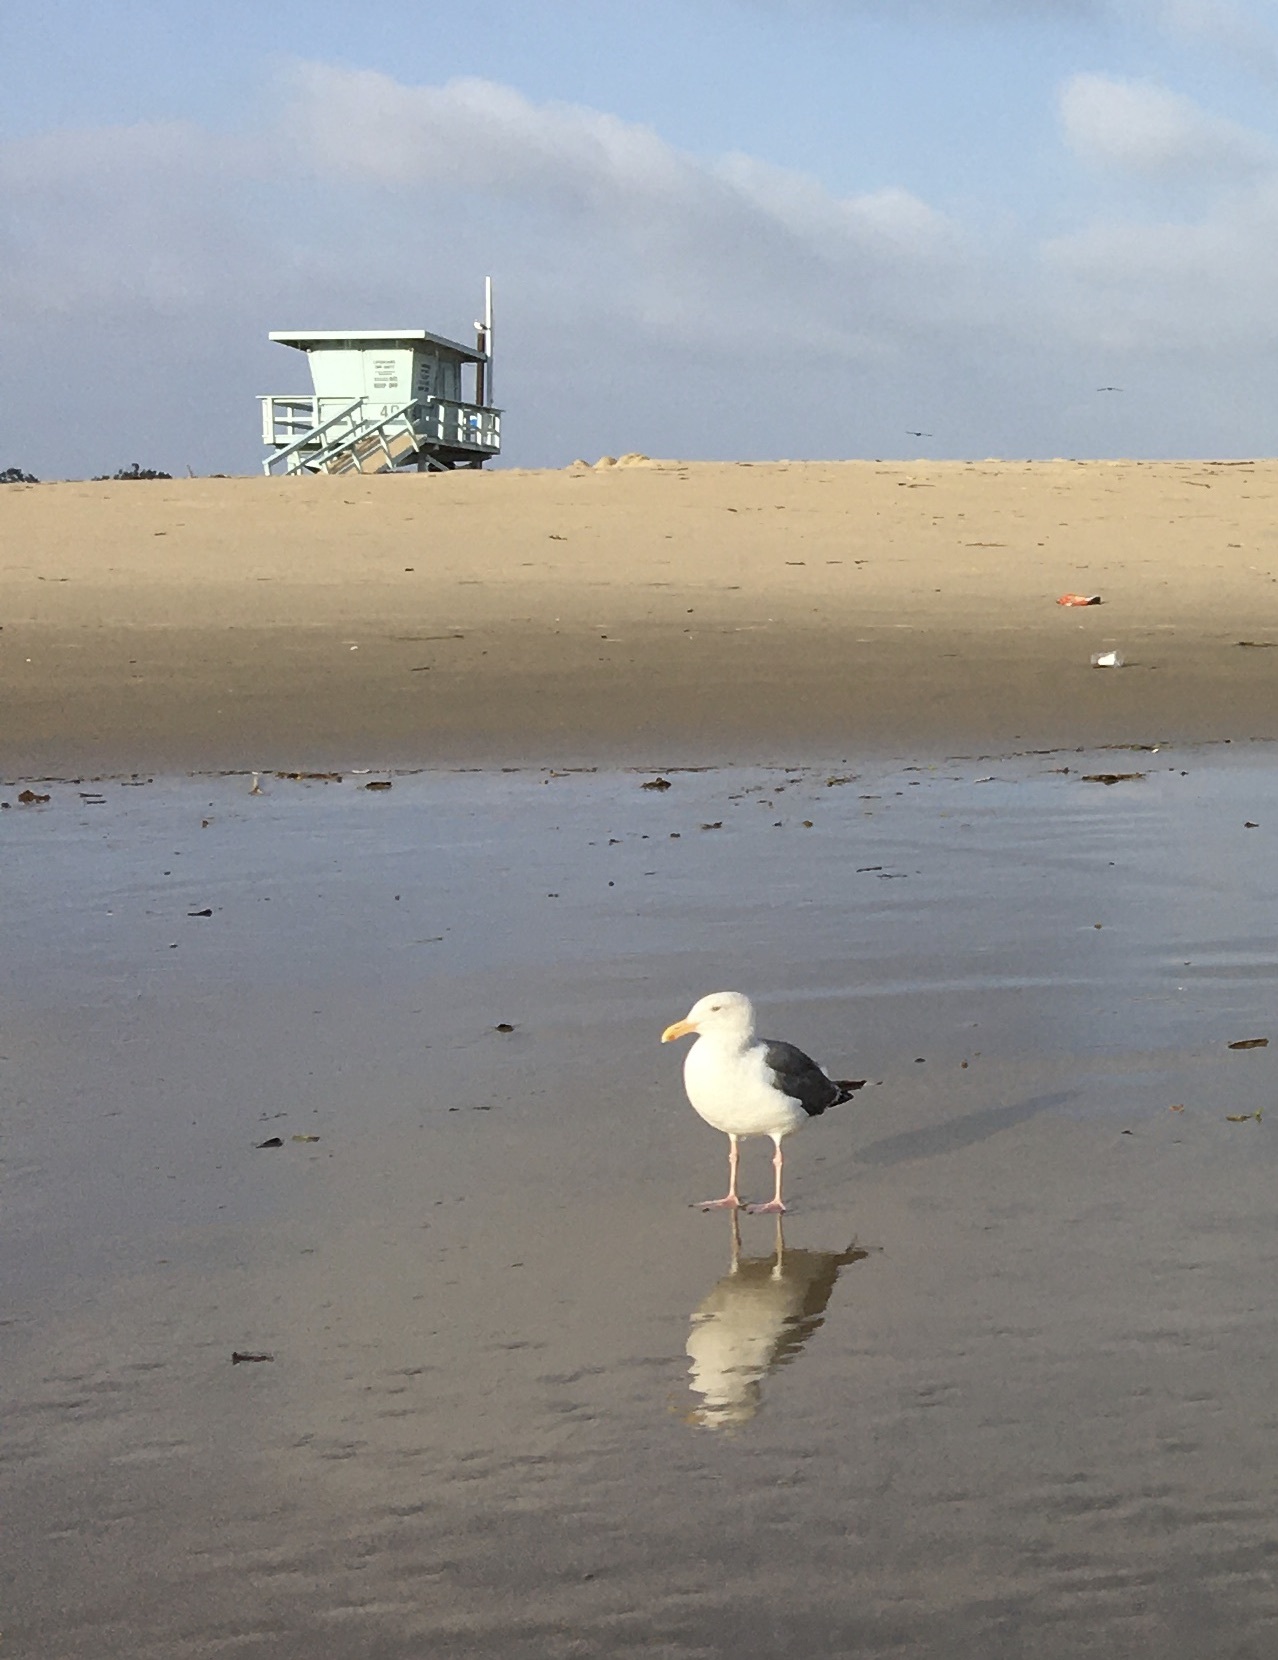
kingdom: Animalia
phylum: Chordata
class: Aves
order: Charadriiformes
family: Laridae
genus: Larus
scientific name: Larus occidentalis
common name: Western gull
